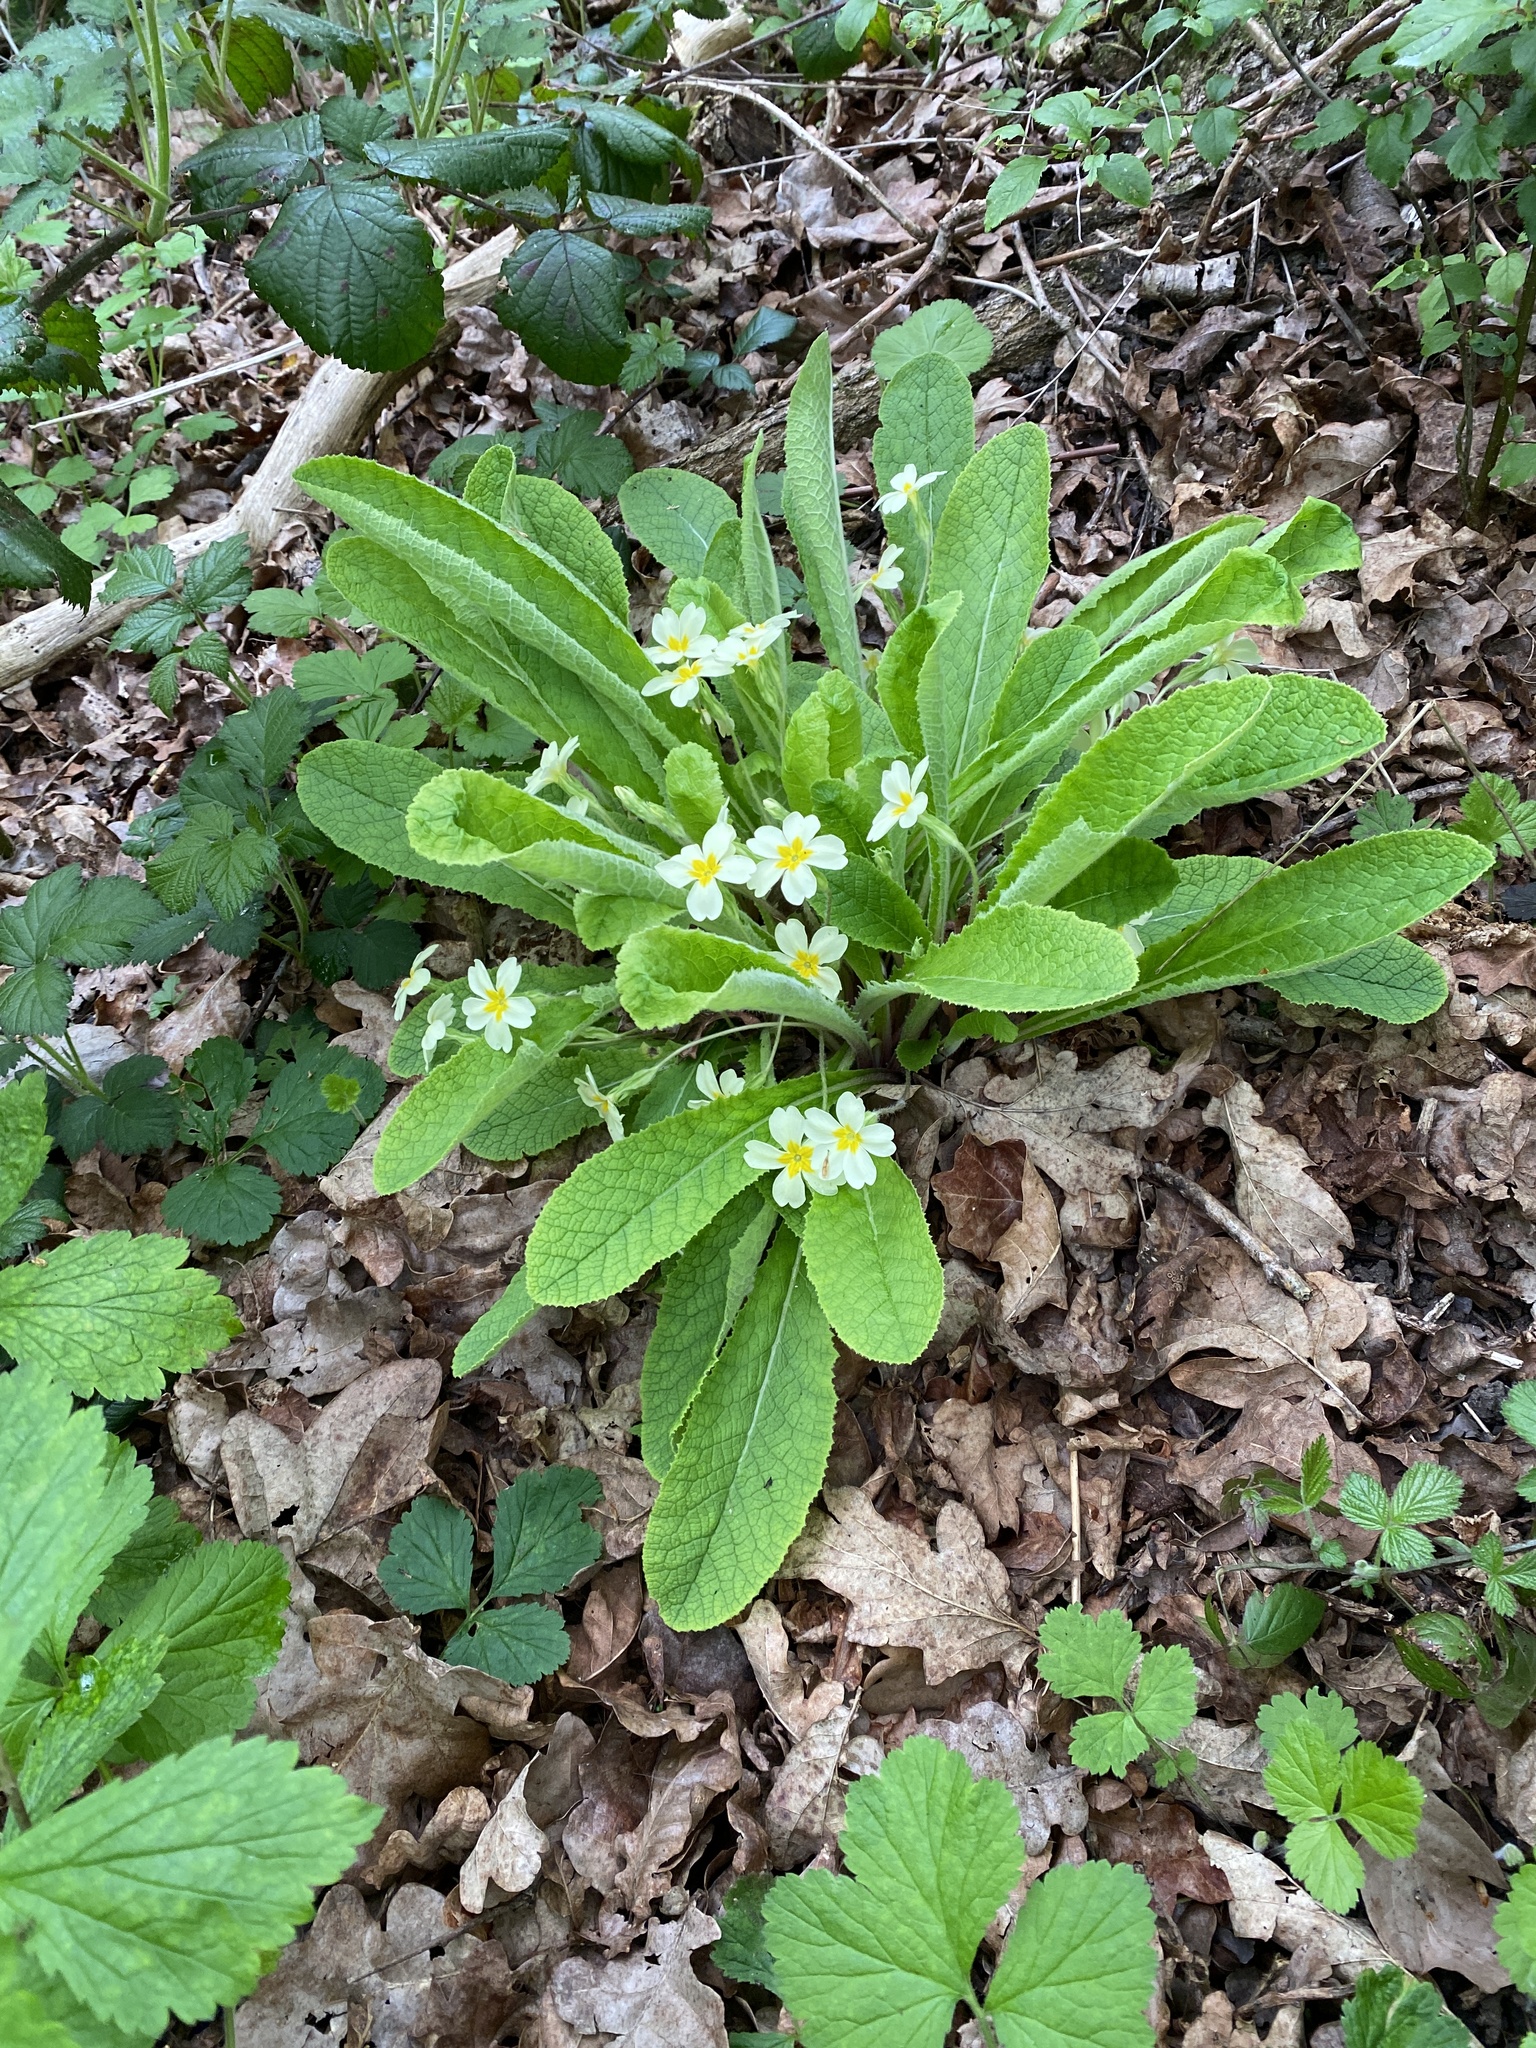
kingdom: Plantae
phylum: Tracheophyta
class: Magnoliopsida
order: Ericales
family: Primulaceae
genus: Primula
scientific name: Primula vulgaris
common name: Primrose
